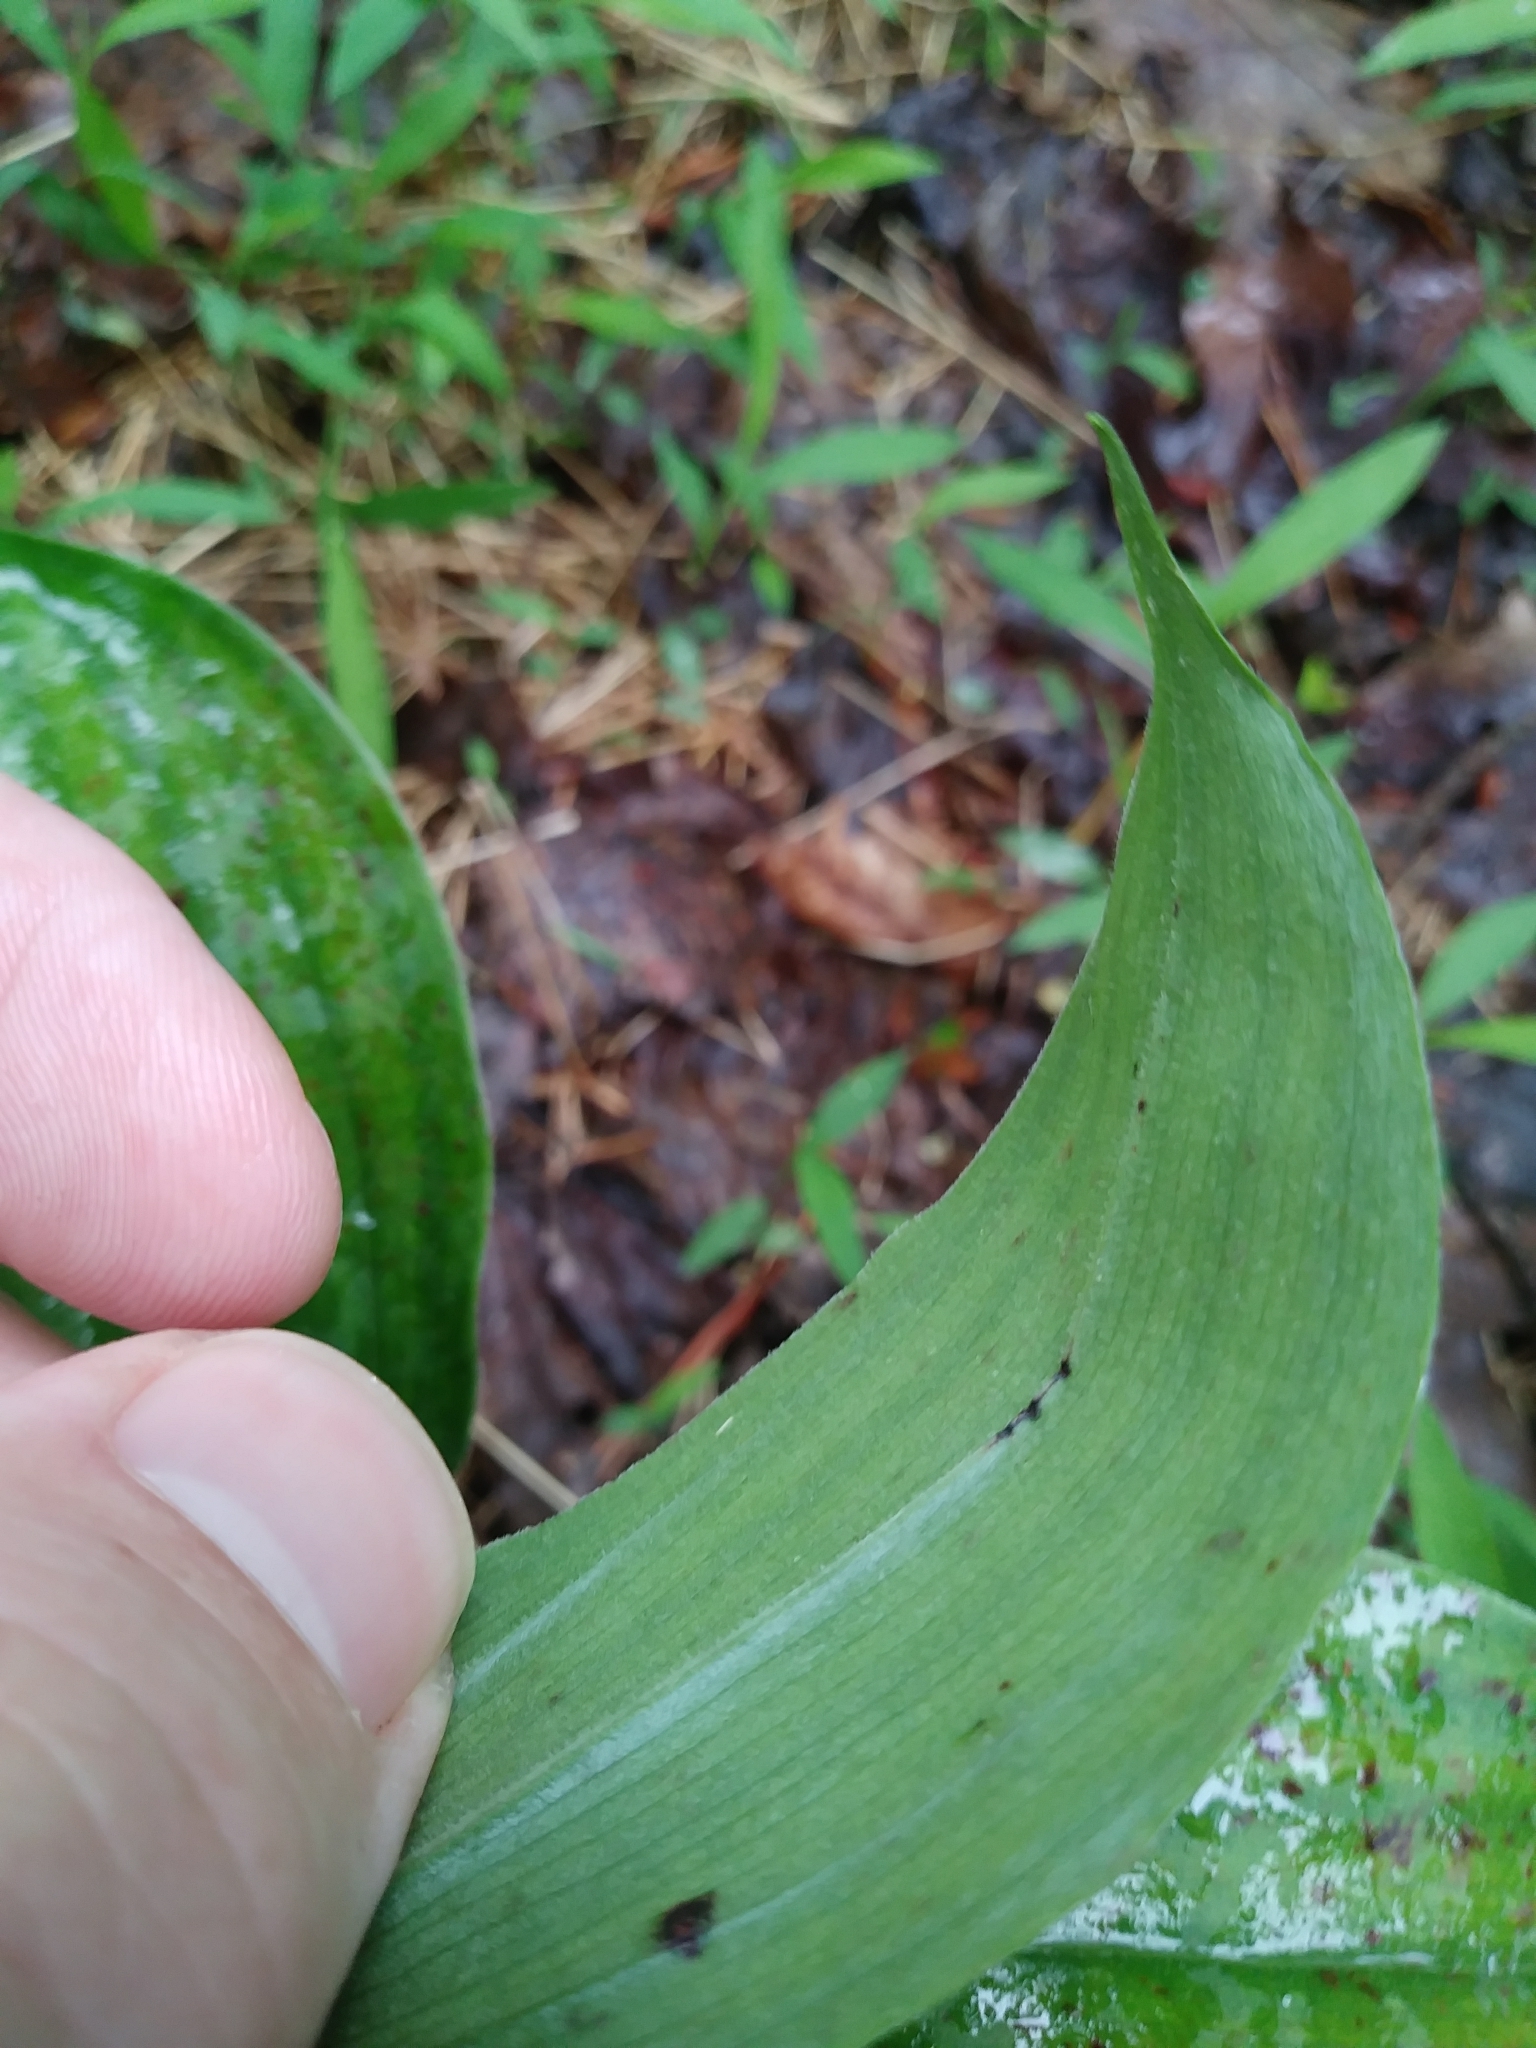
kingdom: Plantae
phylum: Tracheophyta
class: Liliopsida
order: Asparagales
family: Asparagaceae
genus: Maianthemum
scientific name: Maianthemum racemosum
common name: False spikenard
